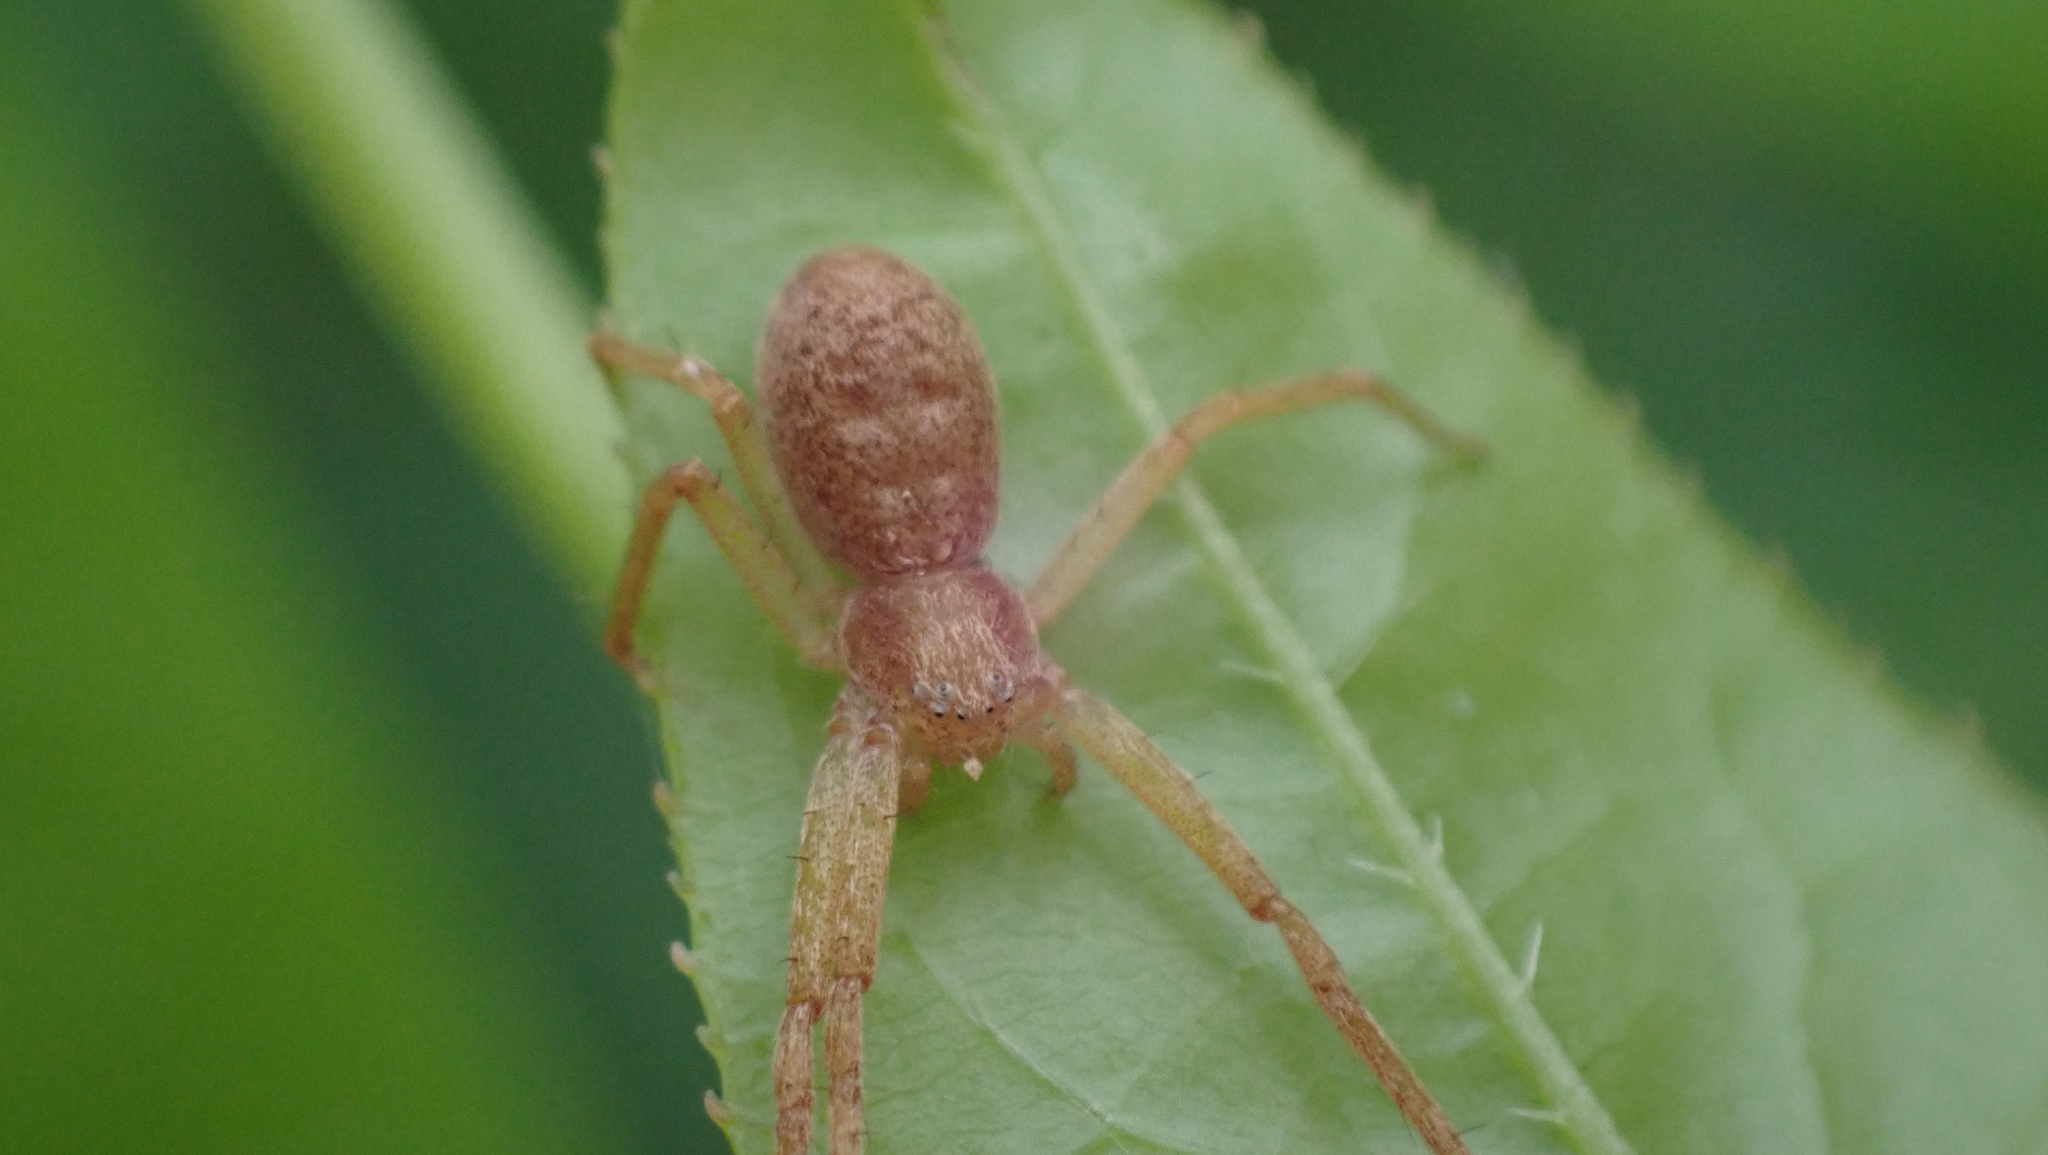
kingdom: Animalia
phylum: Arthropoda
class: Arachnida
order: Araneae
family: Philodromidae
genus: Philodromus
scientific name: Philodromus rufus
